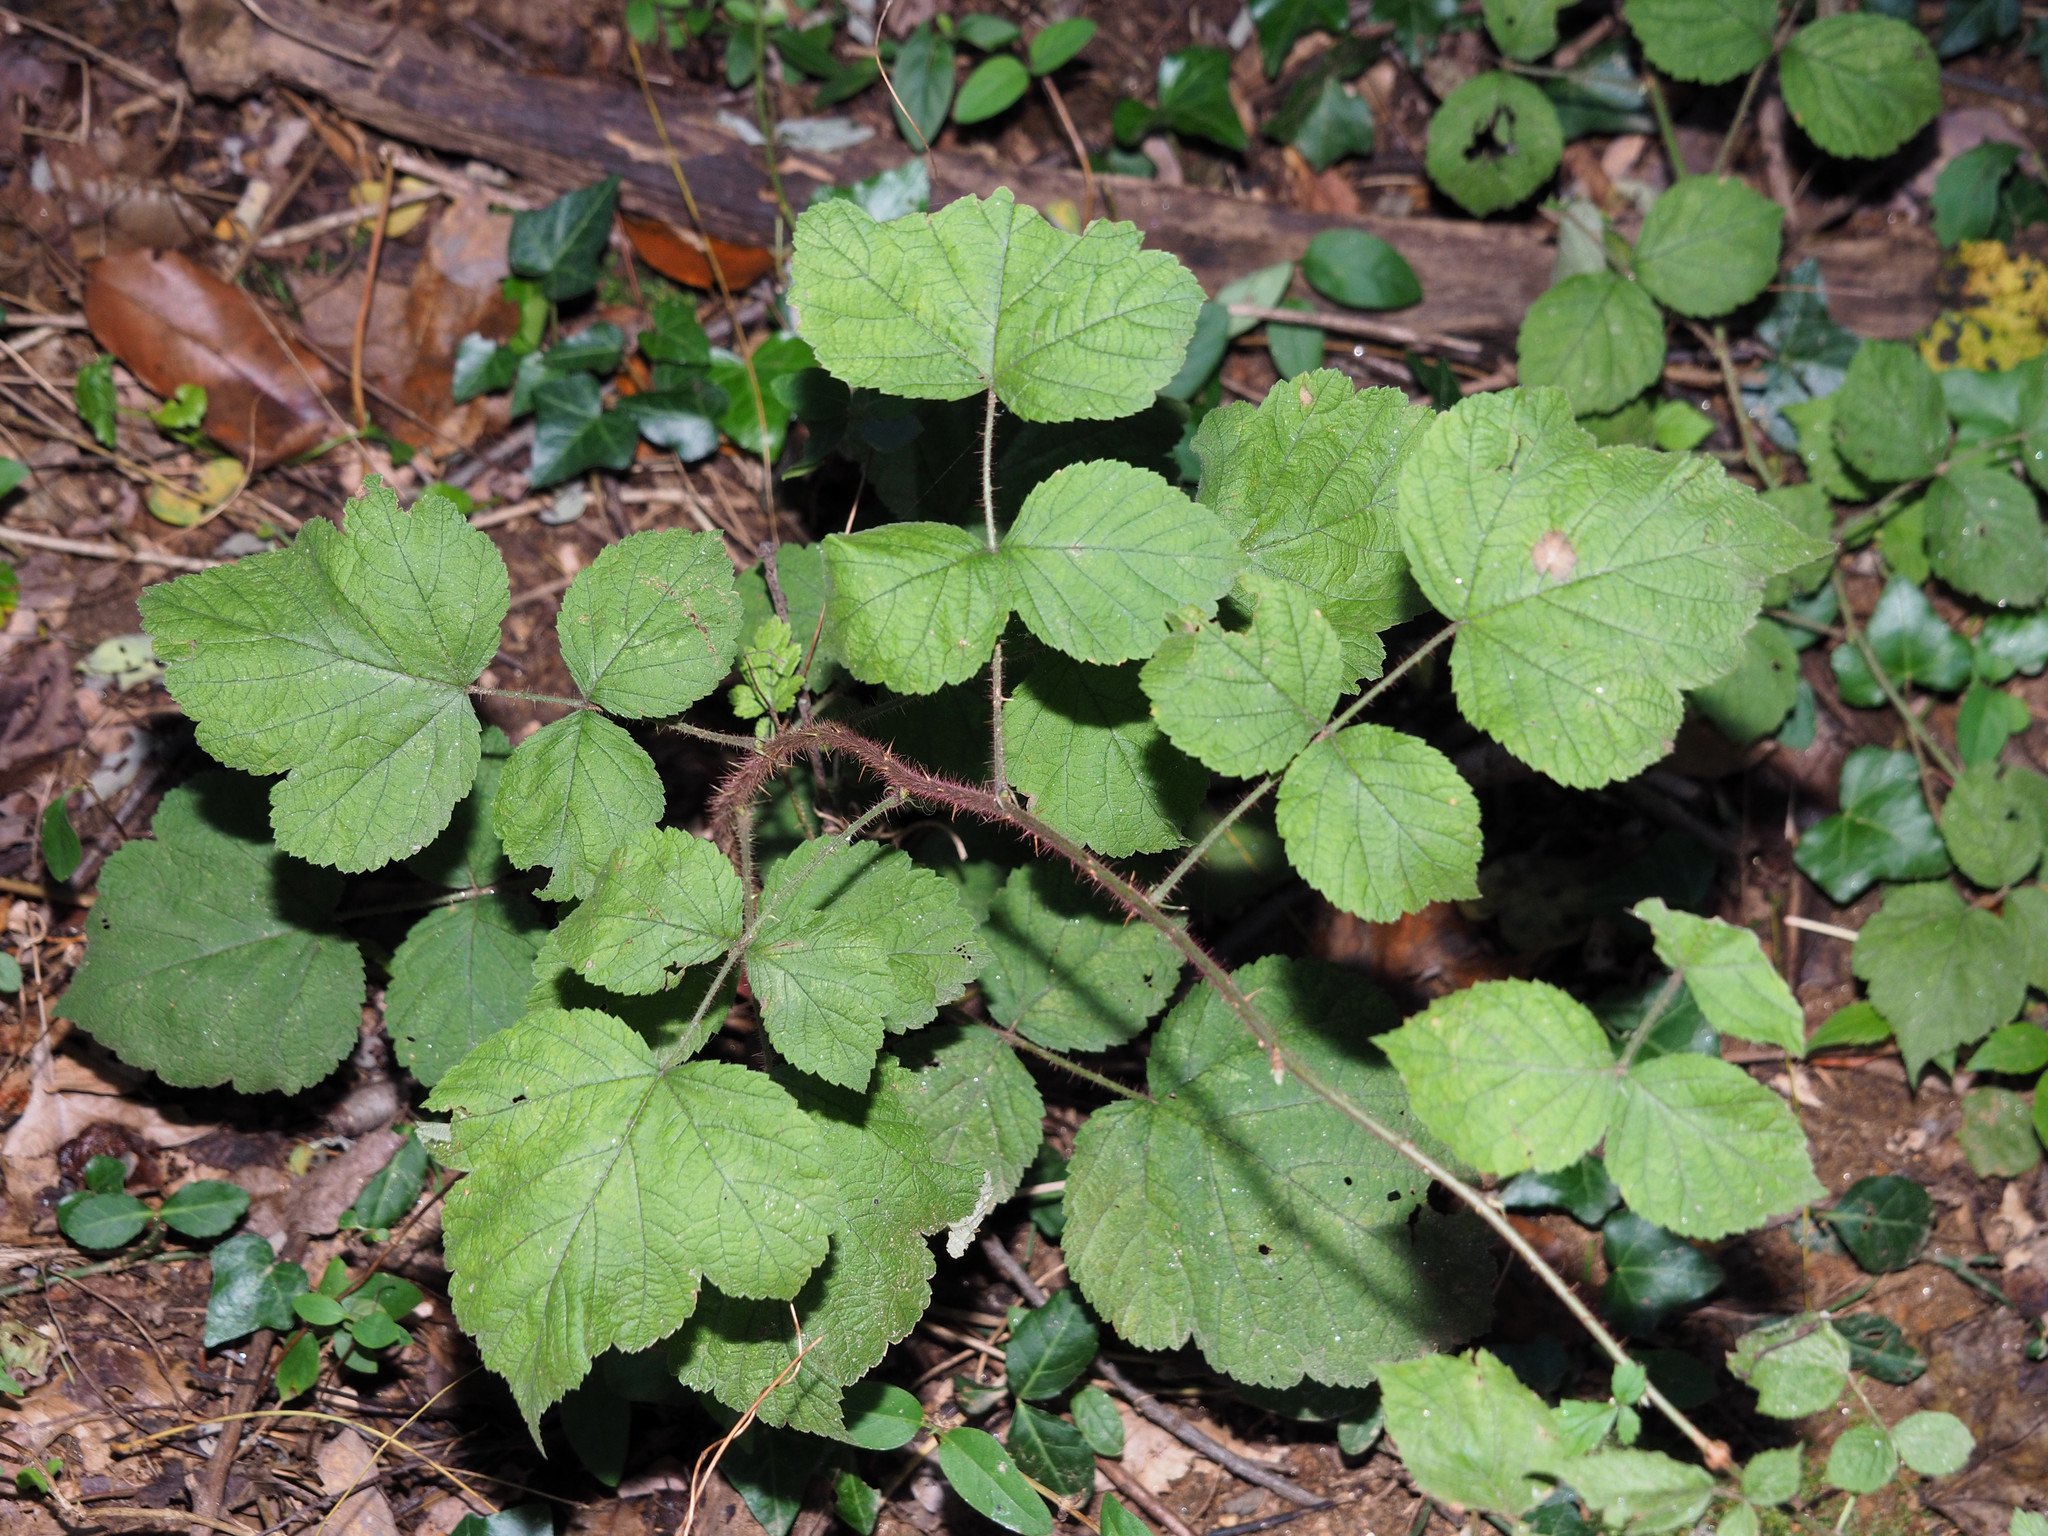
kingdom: Plantae
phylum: Tracheophyta
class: Magnoliopsida
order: Rosales
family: Rosaceae
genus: Rubus
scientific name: Rubus phoenicolasius
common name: Japanese wineberry
